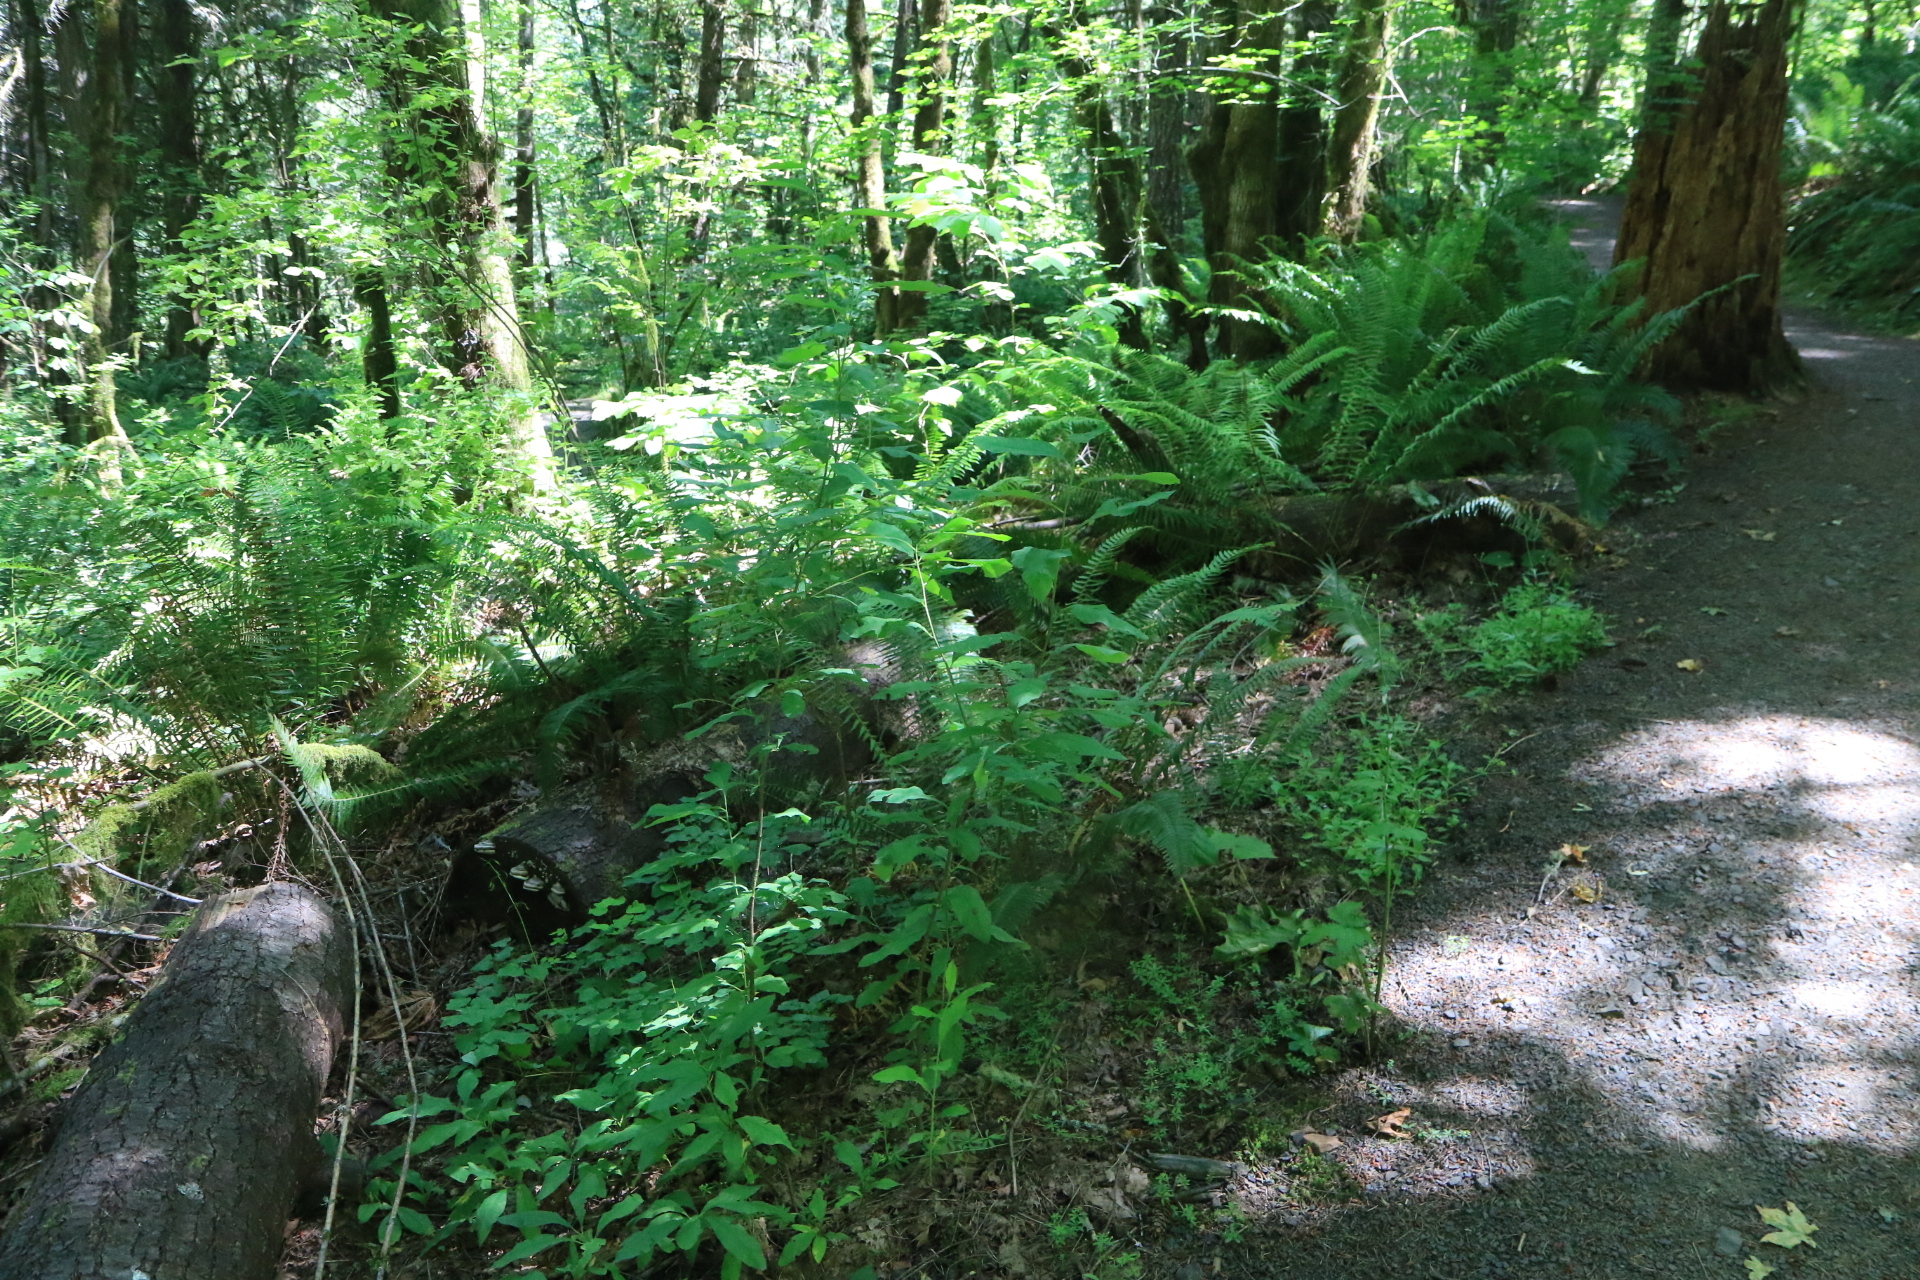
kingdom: Plantae
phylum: Tracheophyta
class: Magnoliopsida
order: Rosales
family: Rosaceae
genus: Oemleria
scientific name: Oemleria cerasiformis
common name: Osoberry
